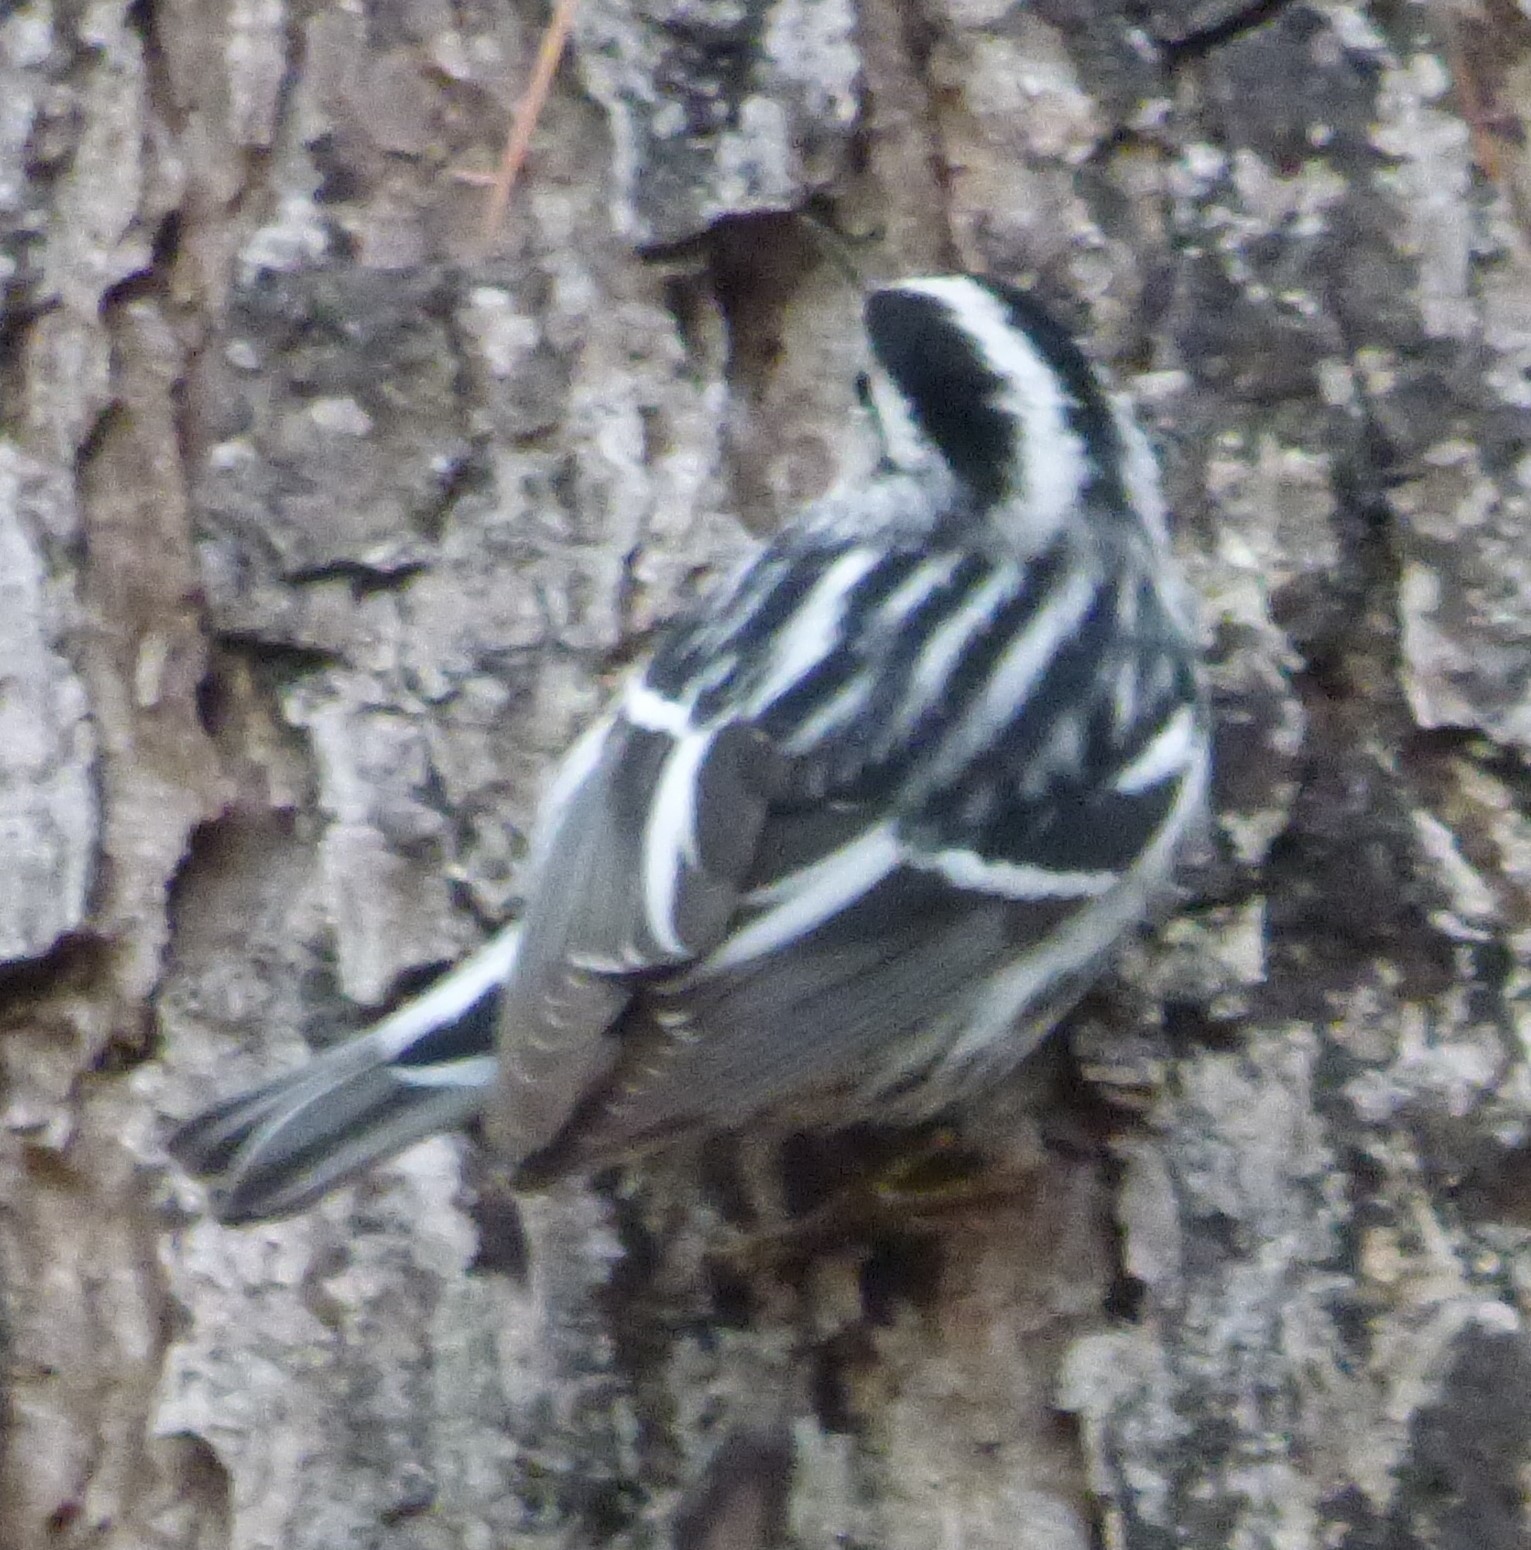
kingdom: Animalia
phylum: Chordata
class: Aves
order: Passeriformes
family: Parulidae
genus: Mniotilta
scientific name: Mniotilta varia
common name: Black-and-white warbler
